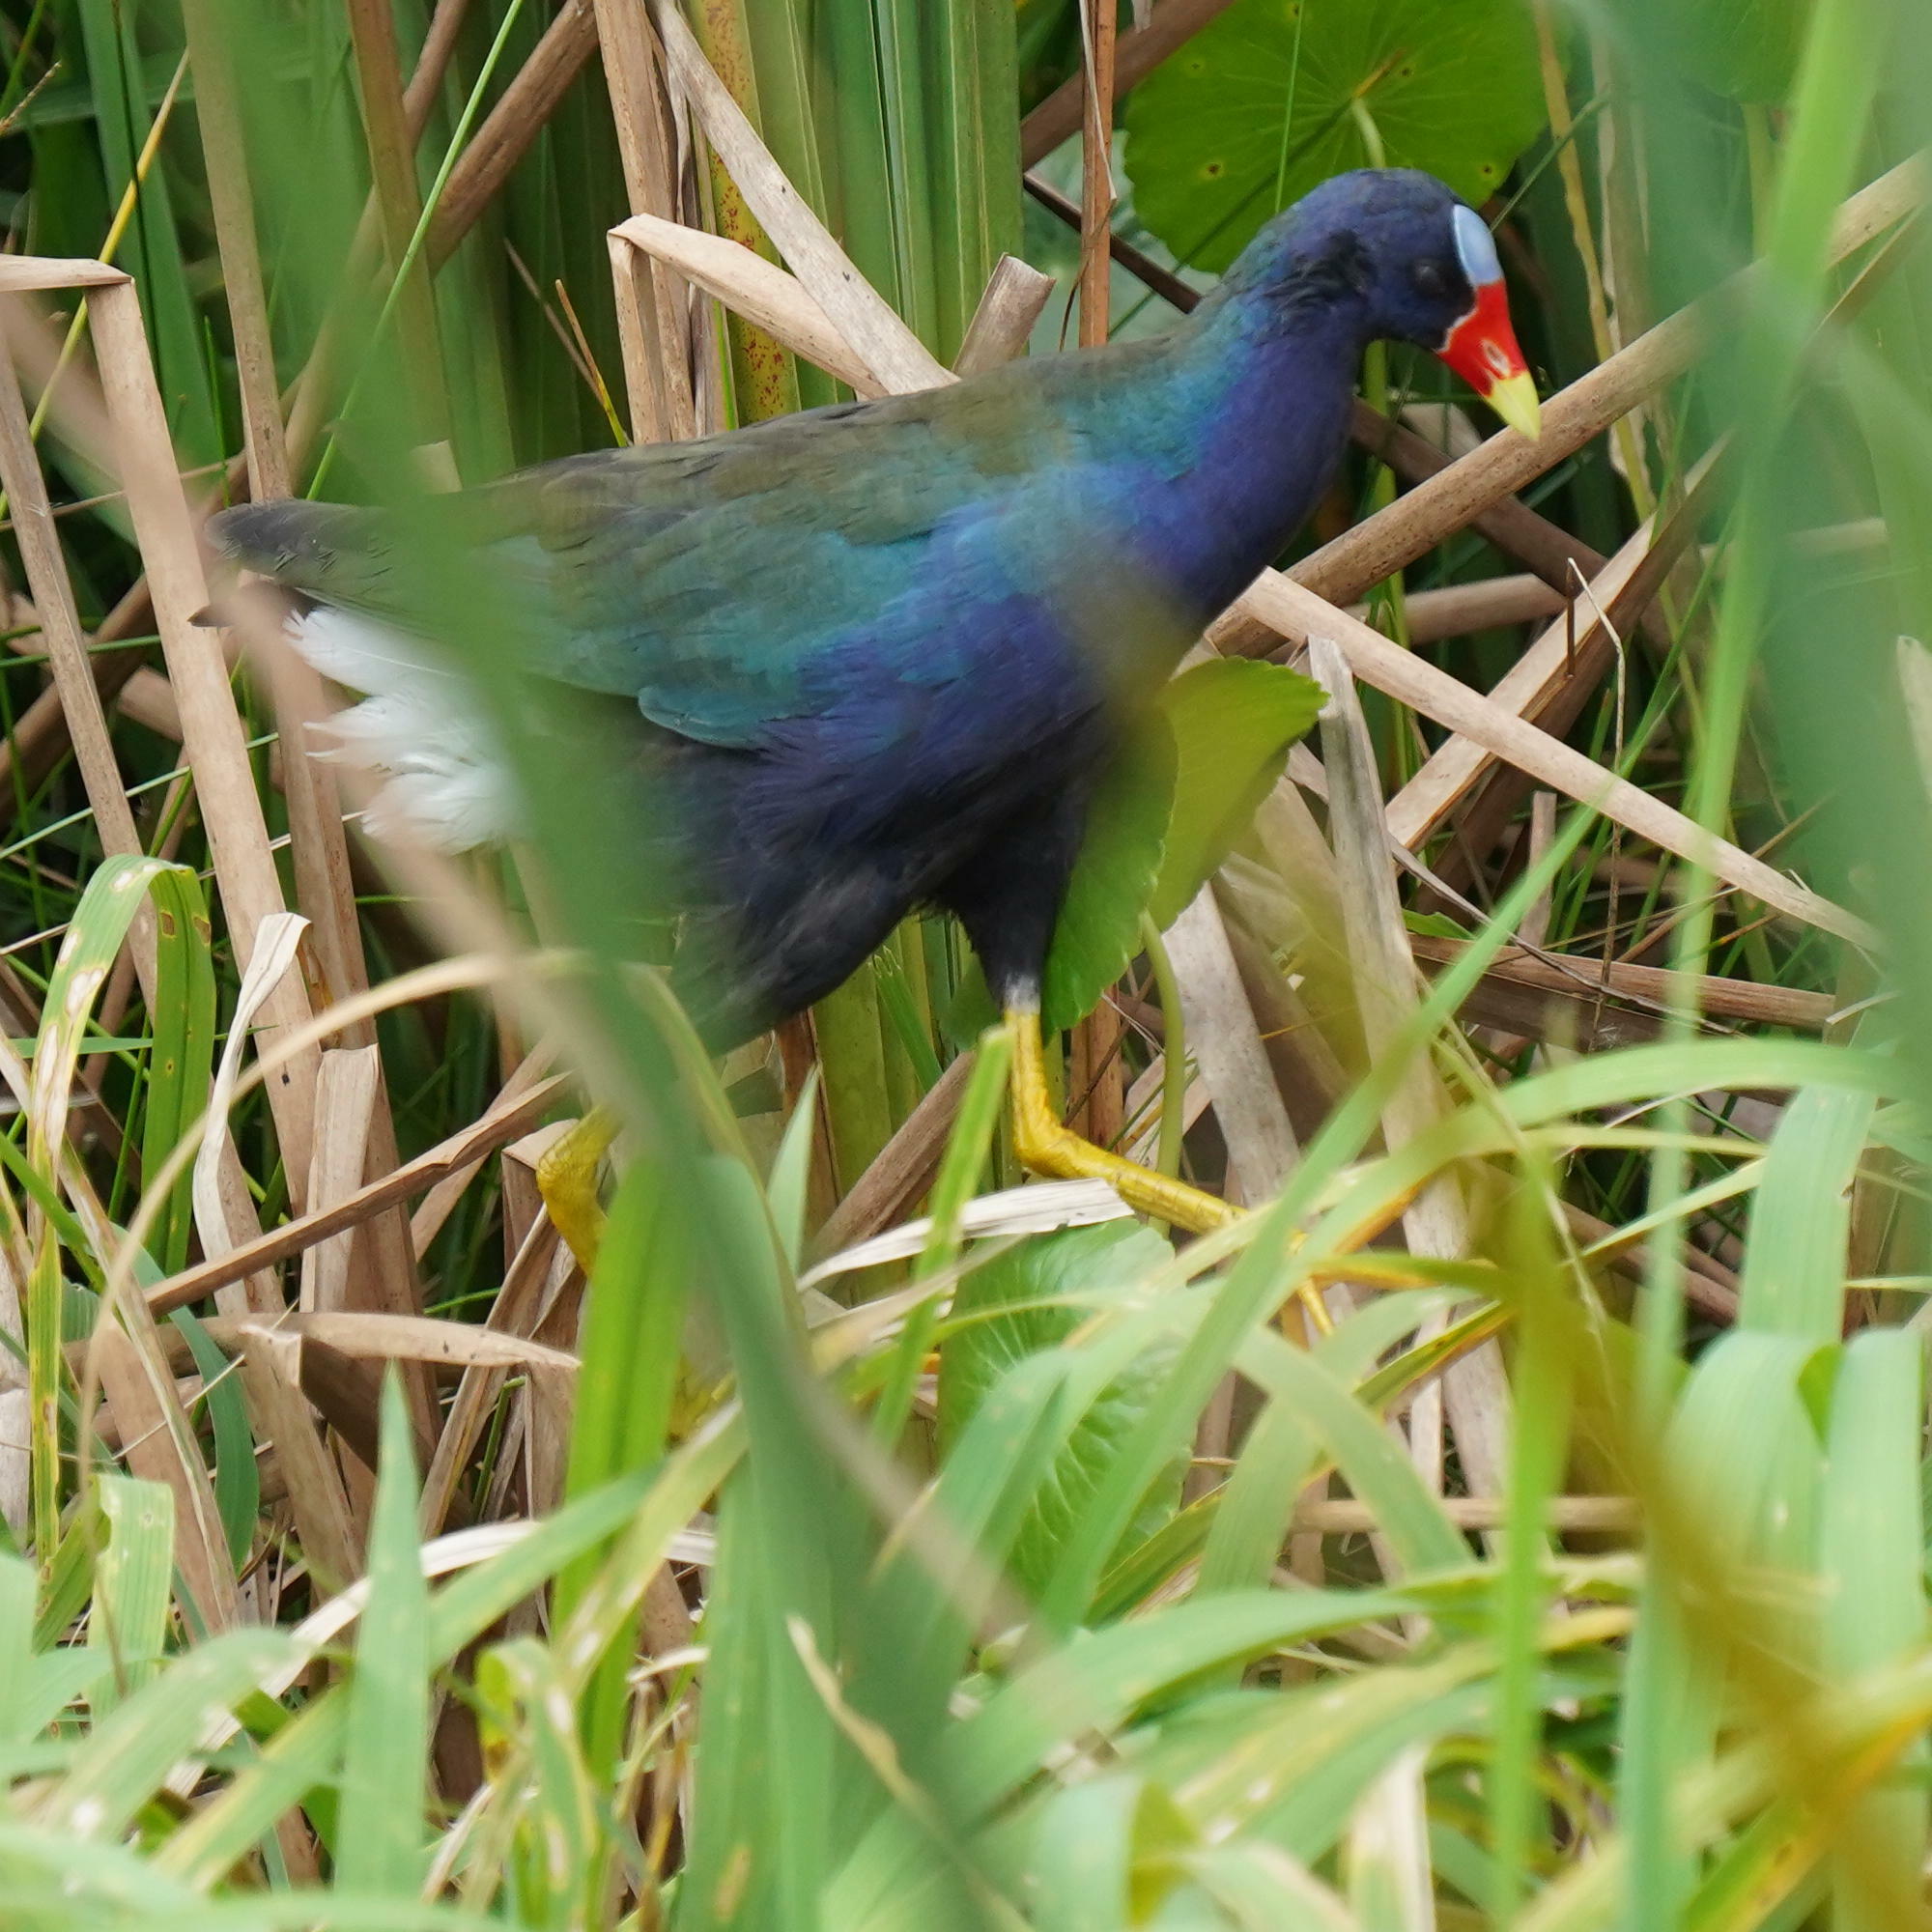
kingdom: Animalia
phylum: Chordata
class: Aves
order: Gruiformes
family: Rallidae
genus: Porphyrio
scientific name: Porphyrio martinica
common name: Purple gallinule
